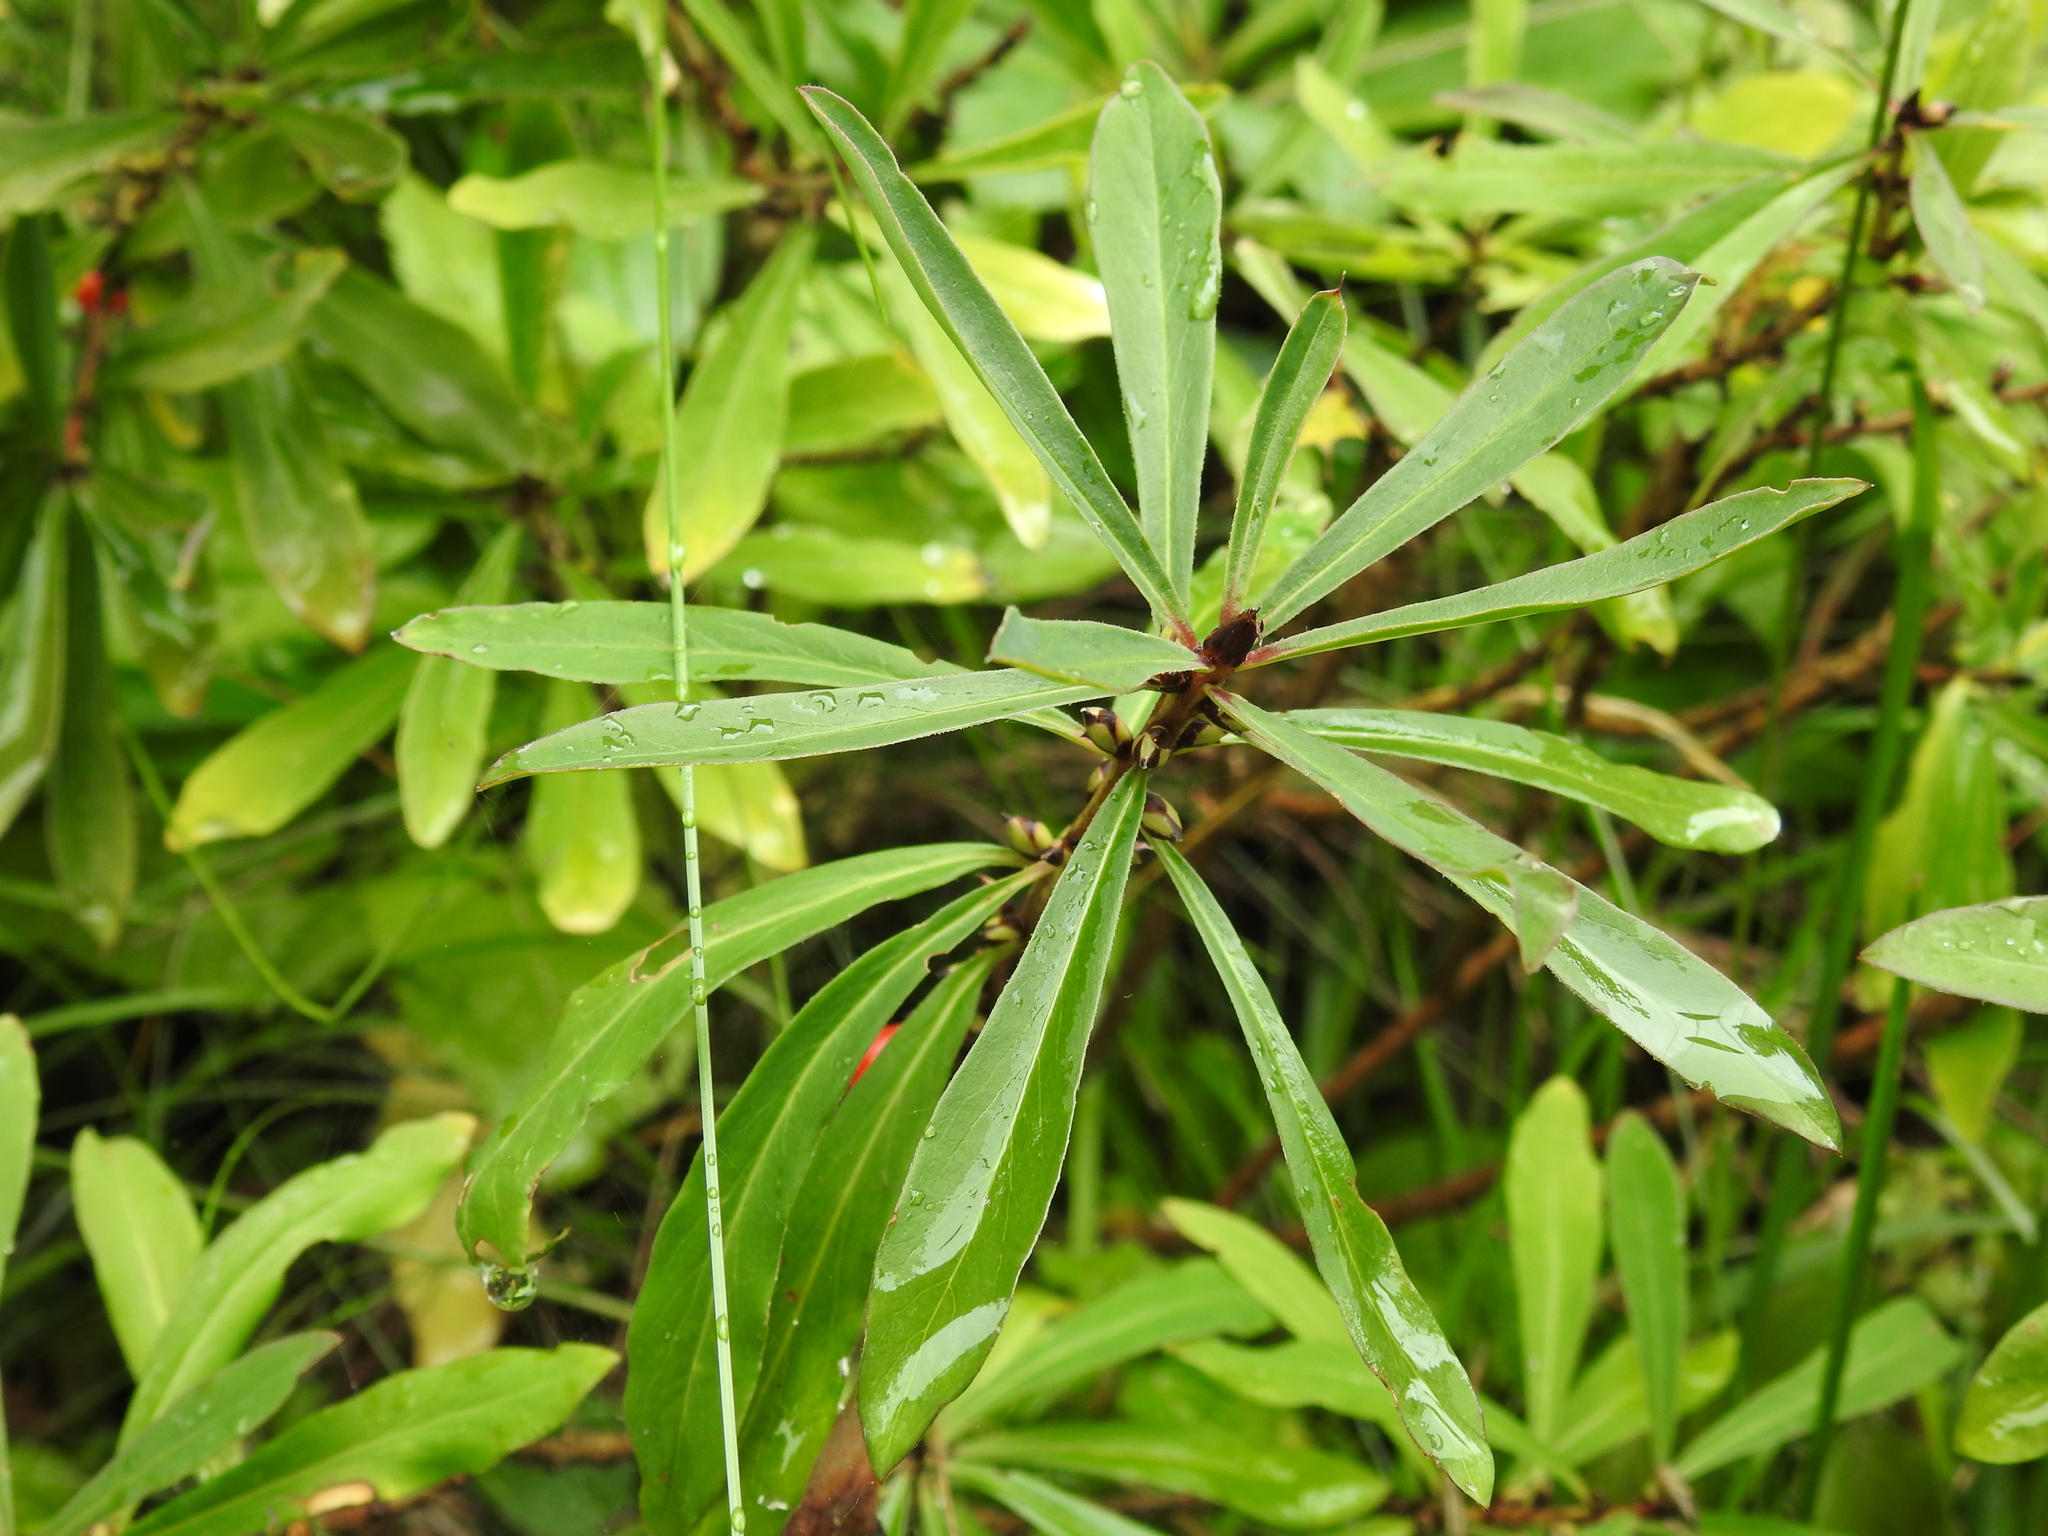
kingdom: Plantae
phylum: Tracheophyta
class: Magnoliopsida
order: Malvales
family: Thymelaeaceae
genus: Daphne
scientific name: Daphne mezereum
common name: Mezereon
